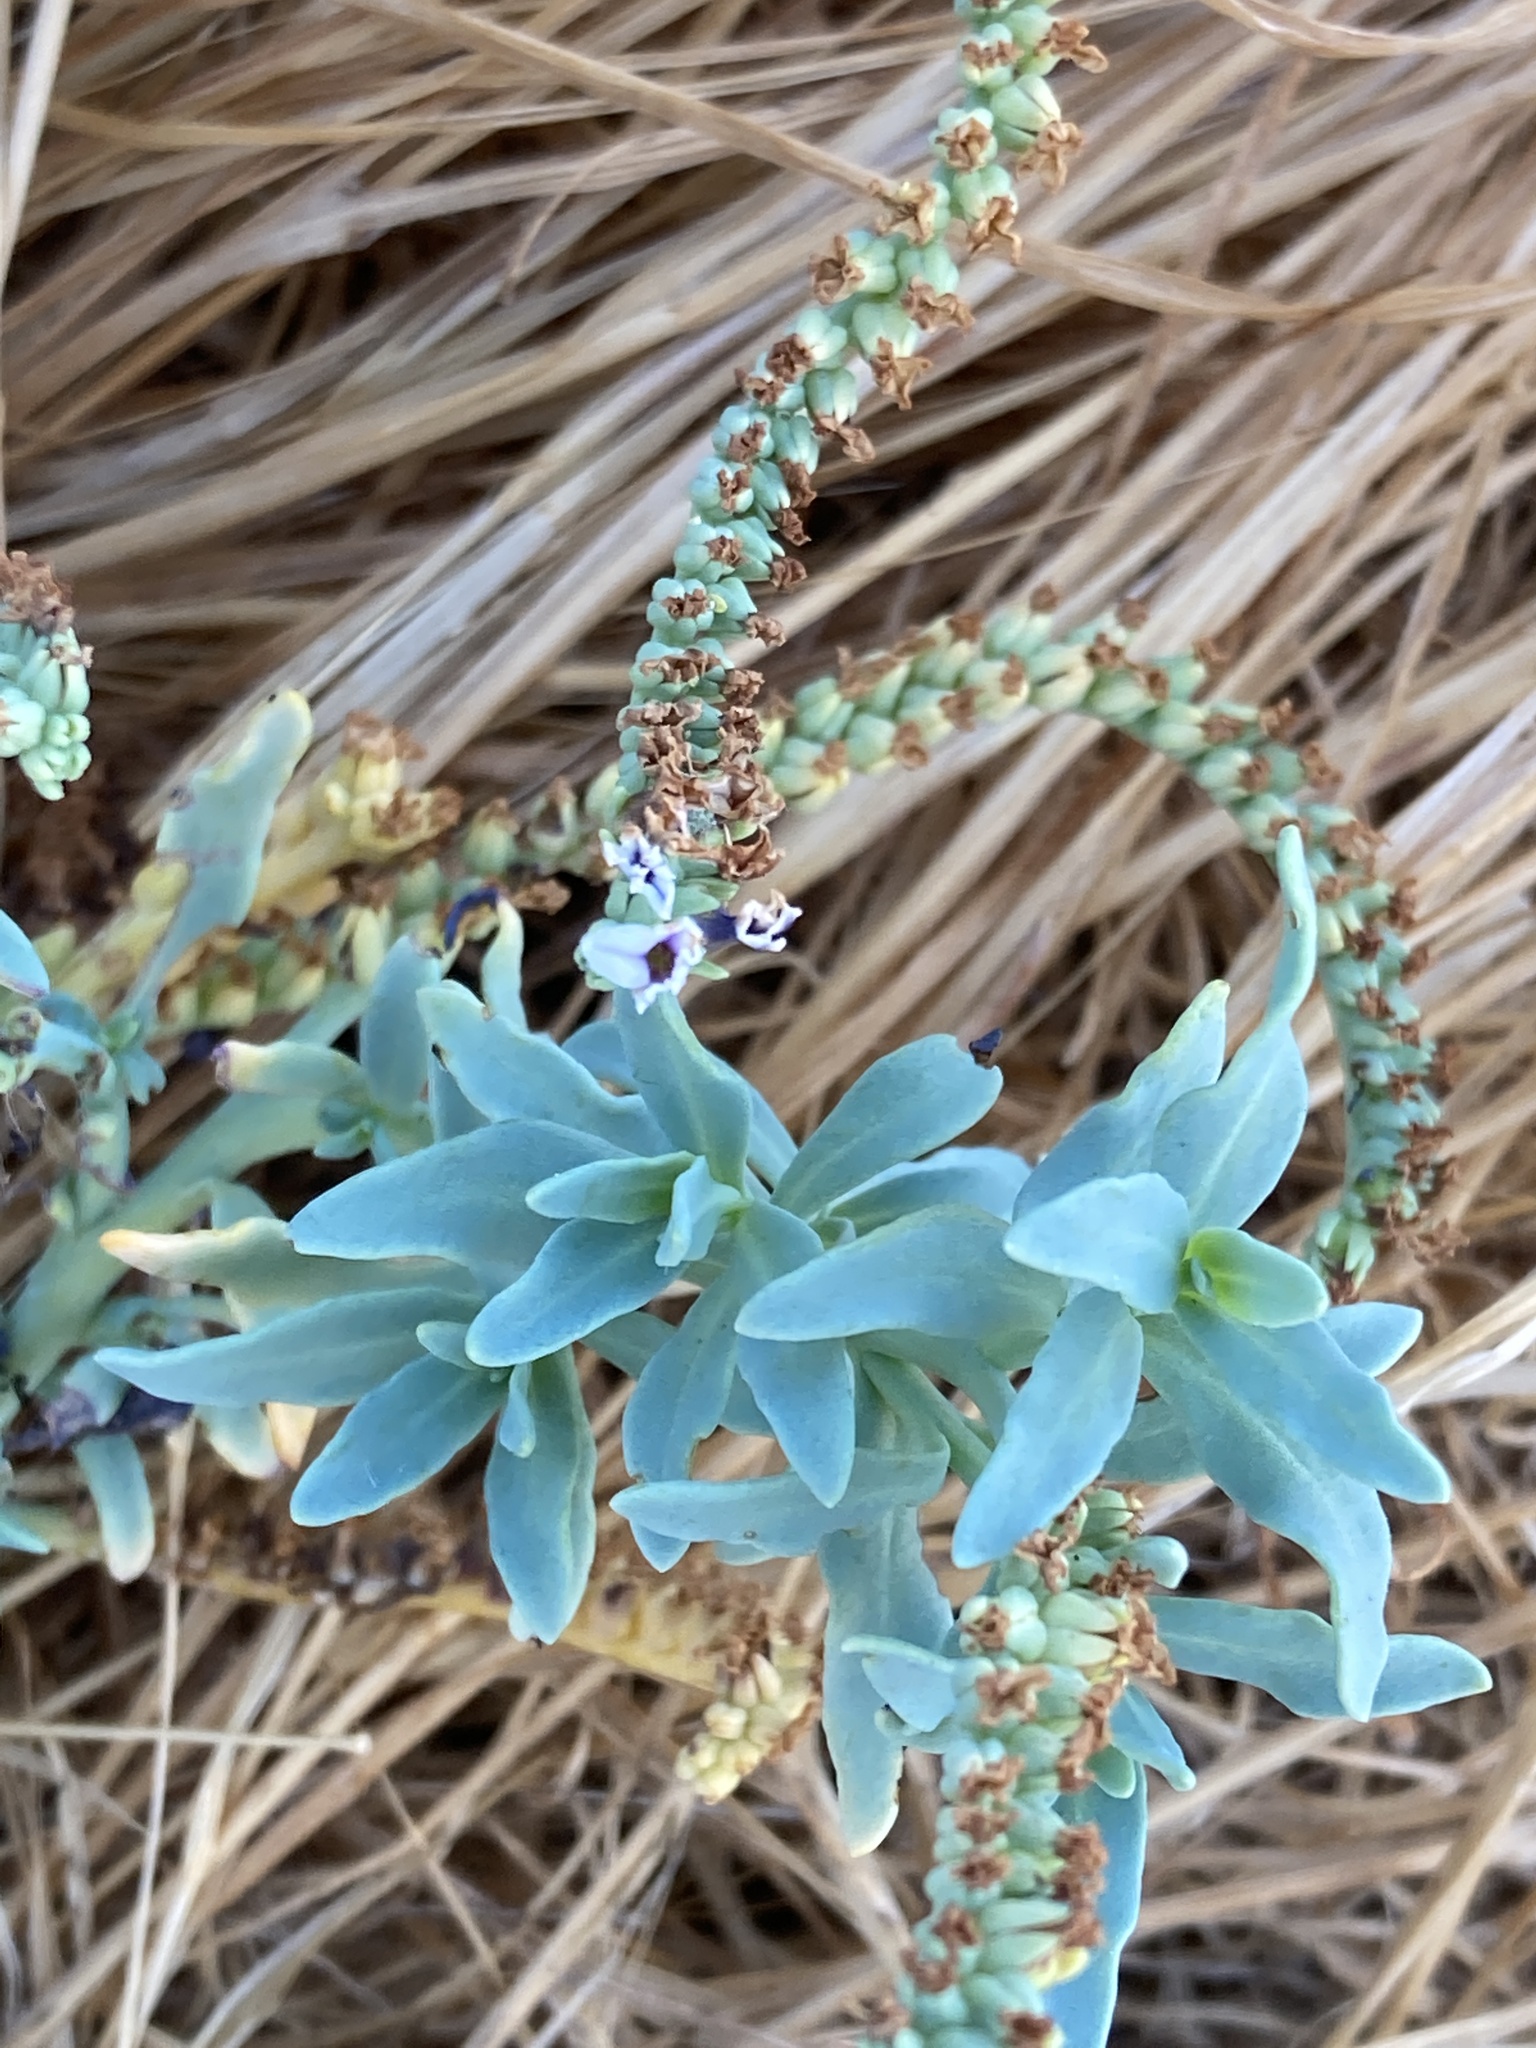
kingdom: Plantae
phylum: Tracheophyta
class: Magnoliopsida
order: Boraginales
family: Heliotropiaceae
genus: Heliotropium
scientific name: Heliotropium curassavicum
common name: Seaside heliotrope
